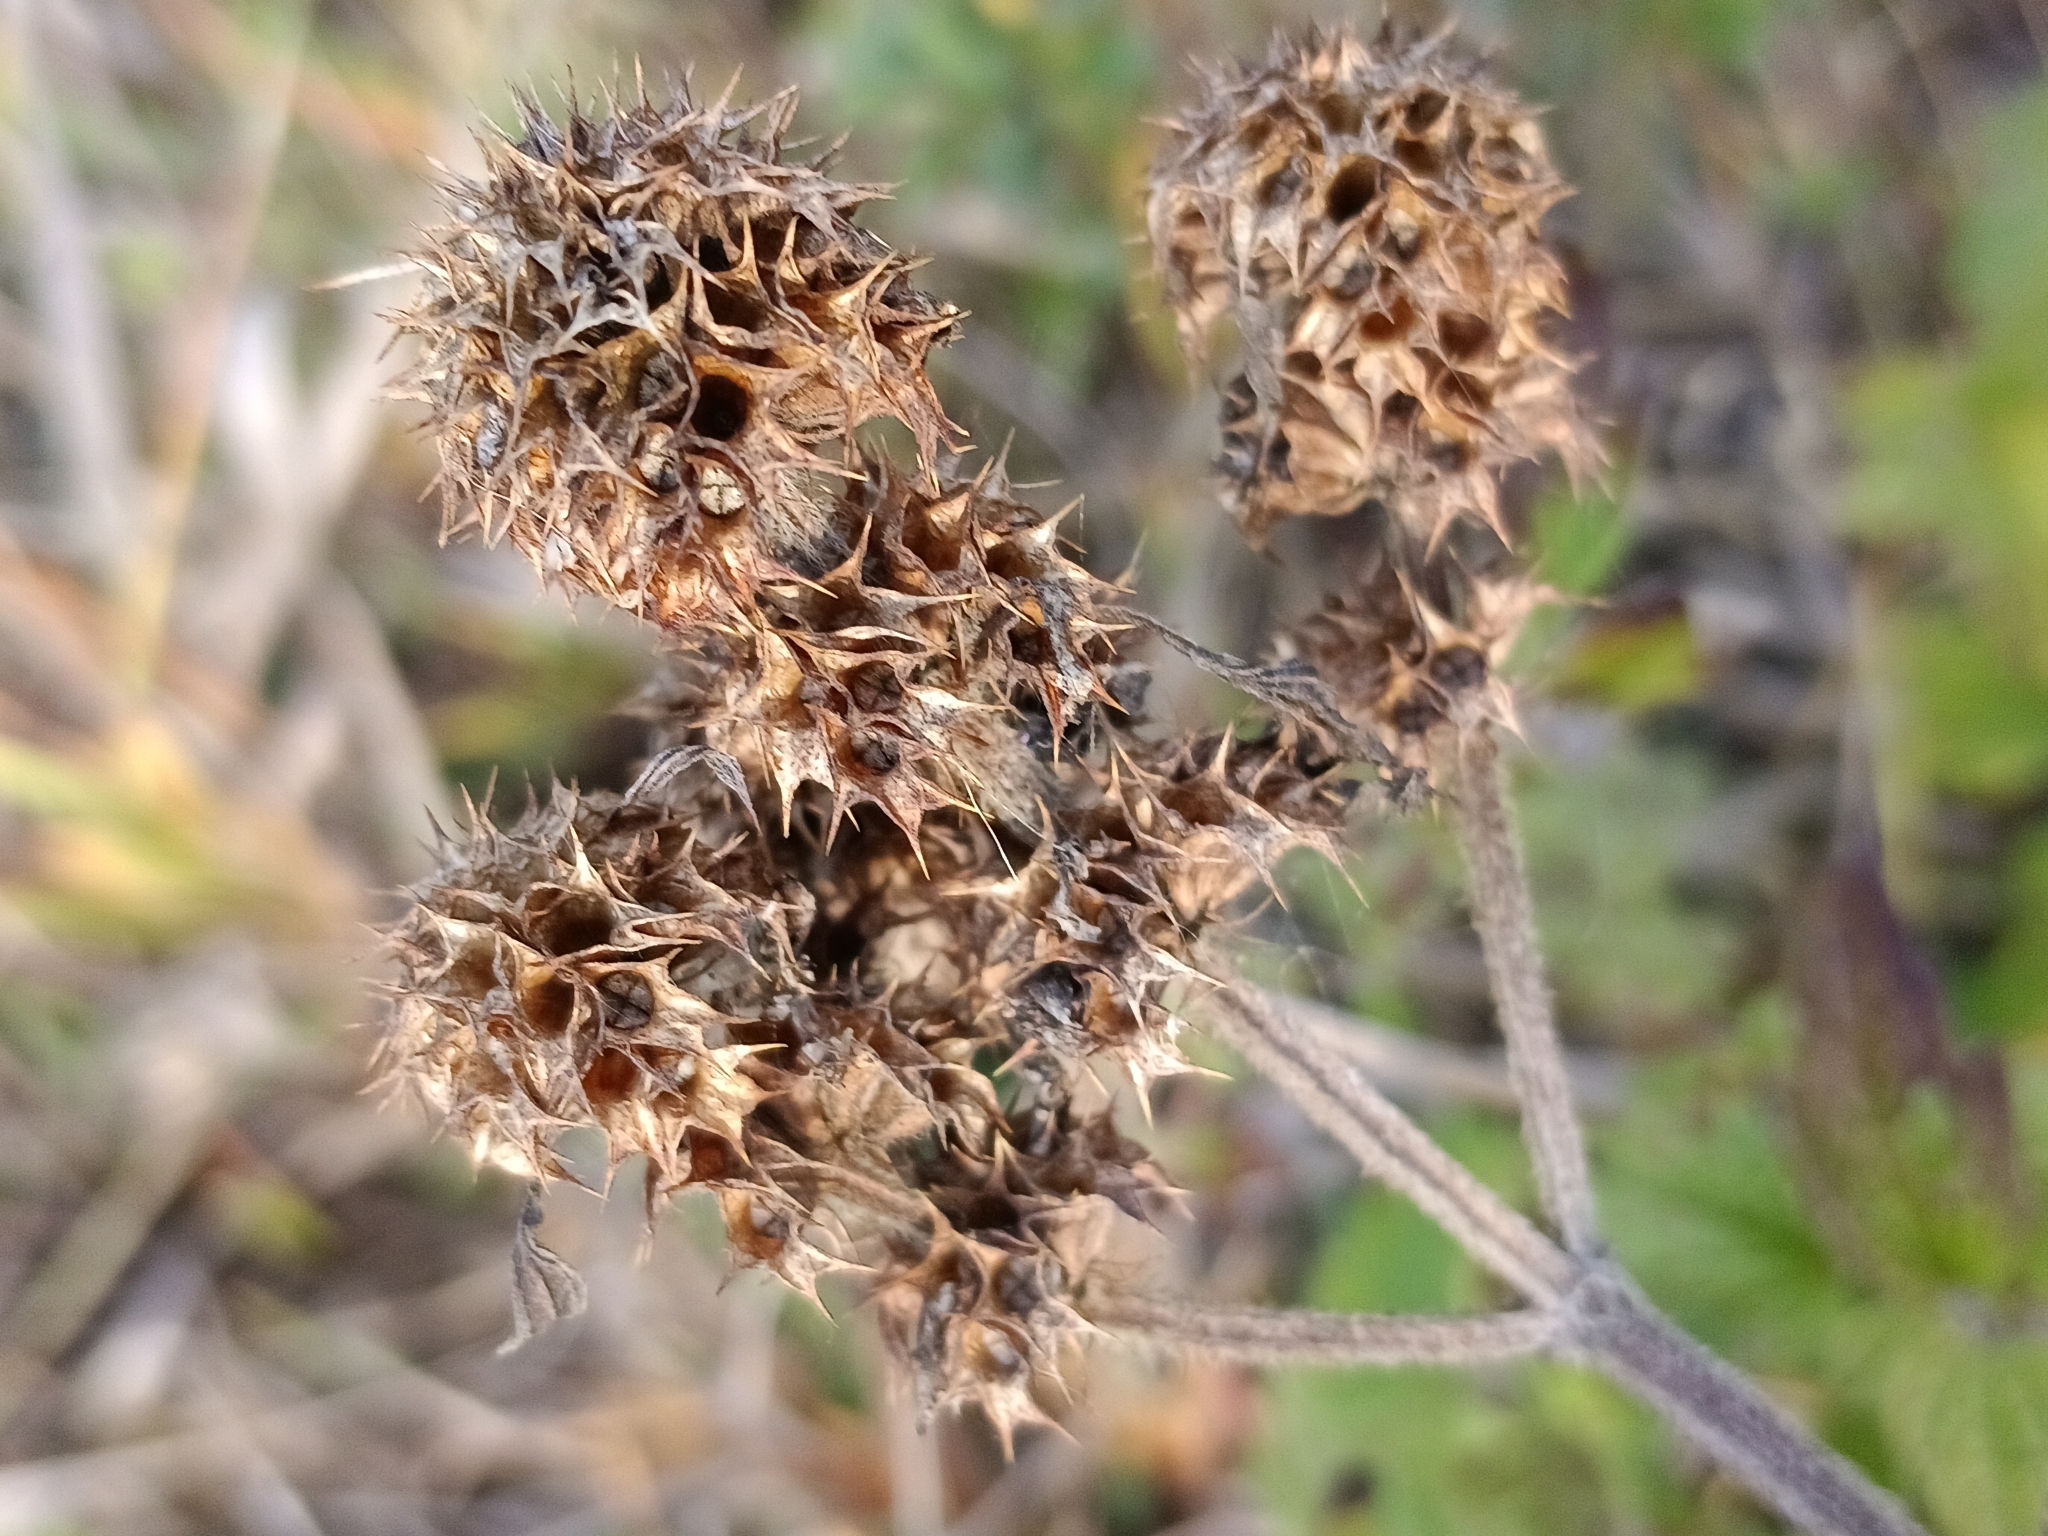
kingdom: Plantae
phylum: Tracheophyta
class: Magnoliopsida
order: Lamiales
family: Lamiaceae
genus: Leonurus
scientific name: Leonurus quinquelobatus
